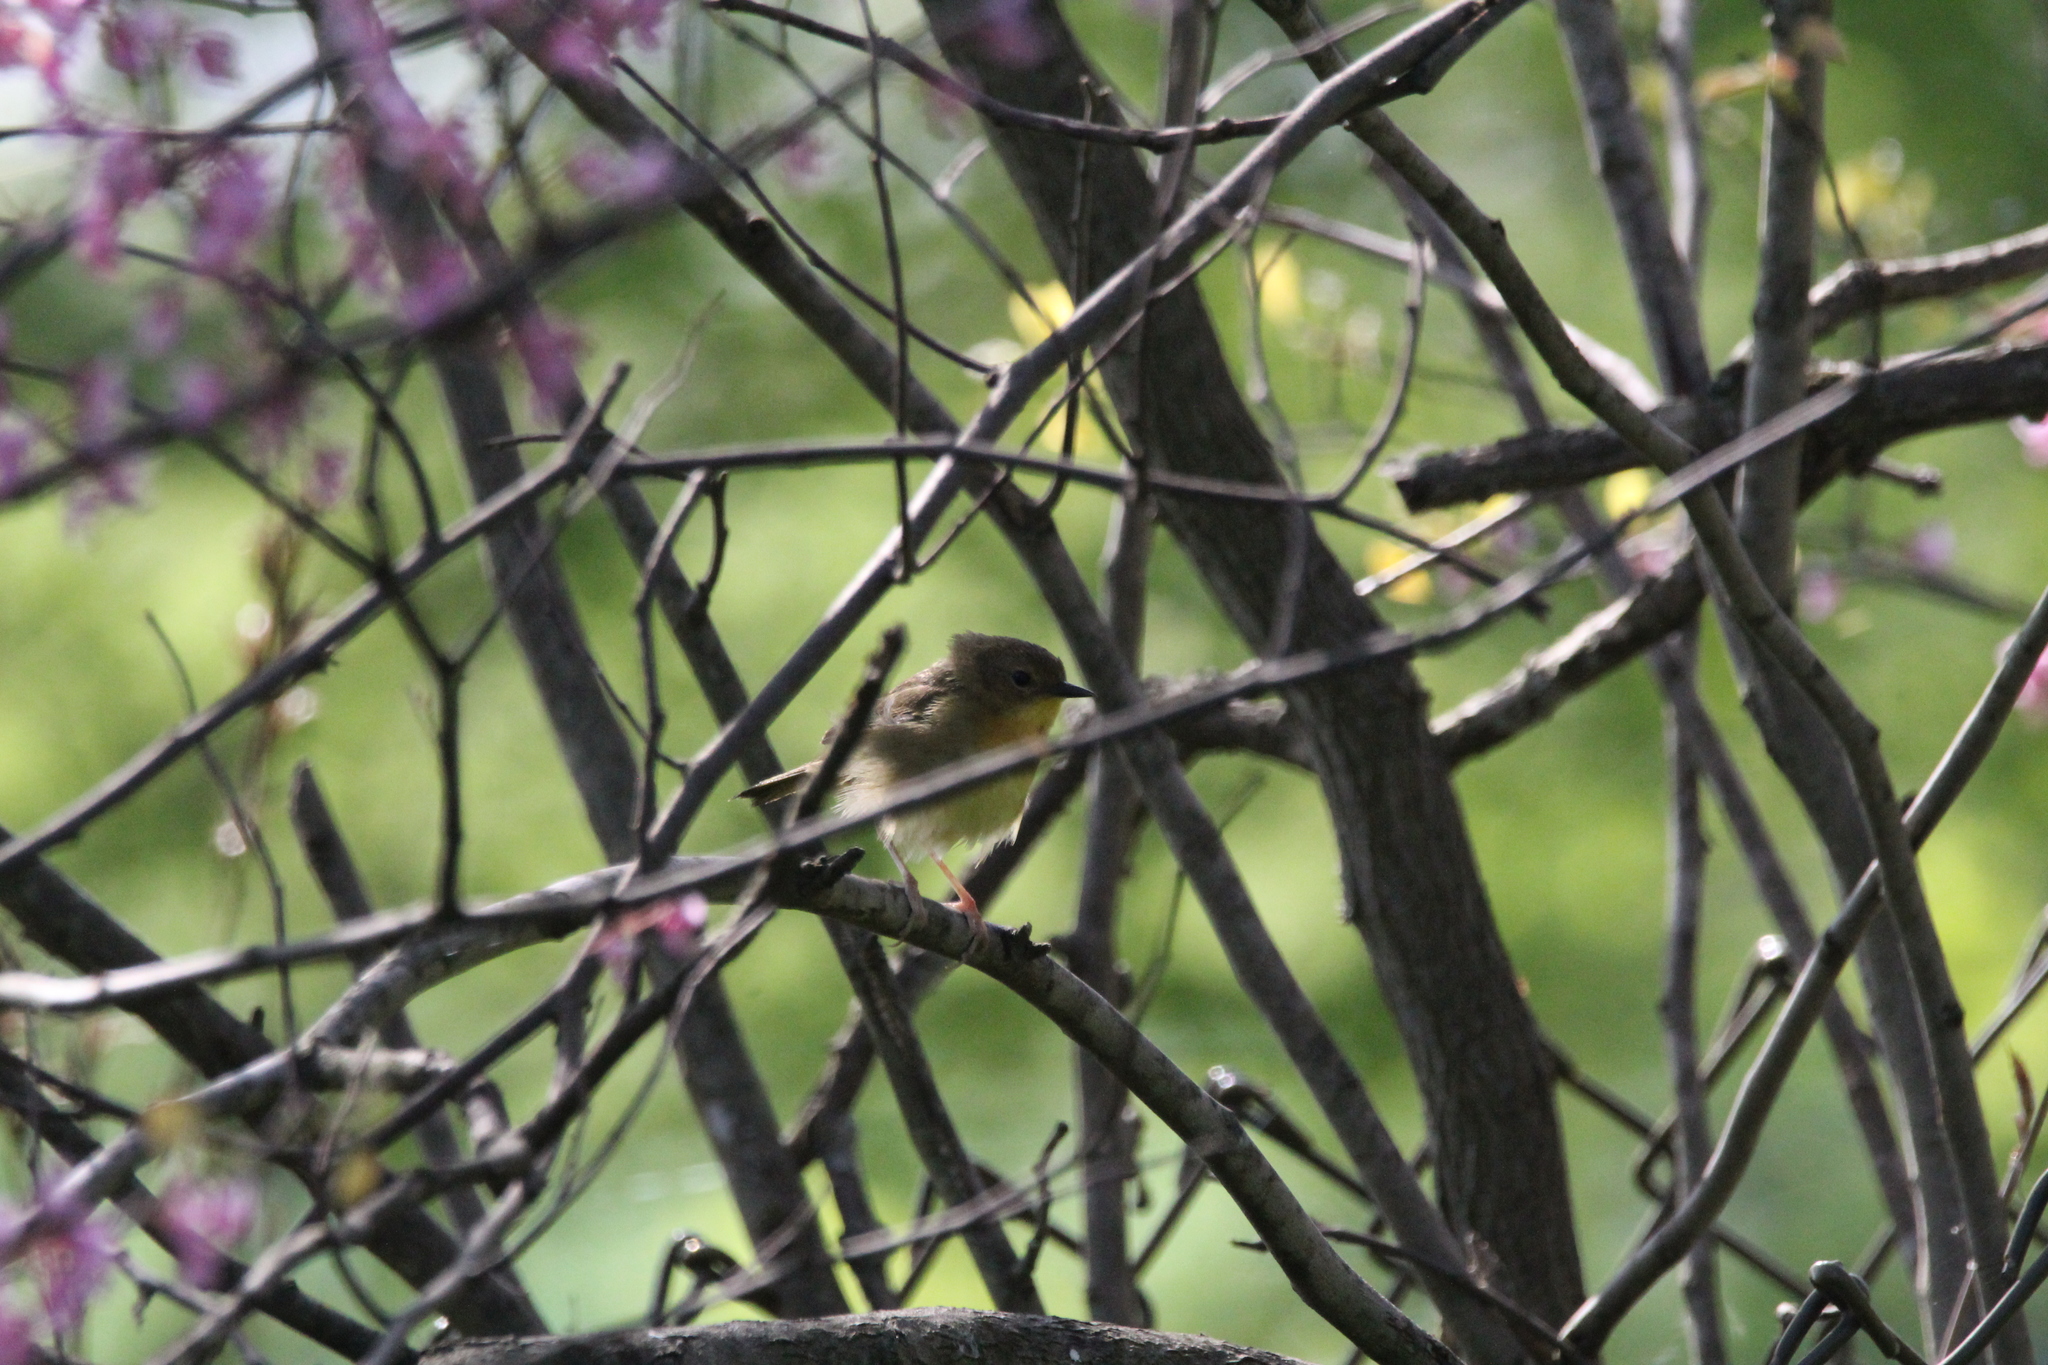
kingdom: Animalia
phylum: Chordata
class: Aves
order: Passeriformes
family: Parulidae
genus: Geothlypis
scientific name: Geothlypis trichas
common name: Common yellowthroat
